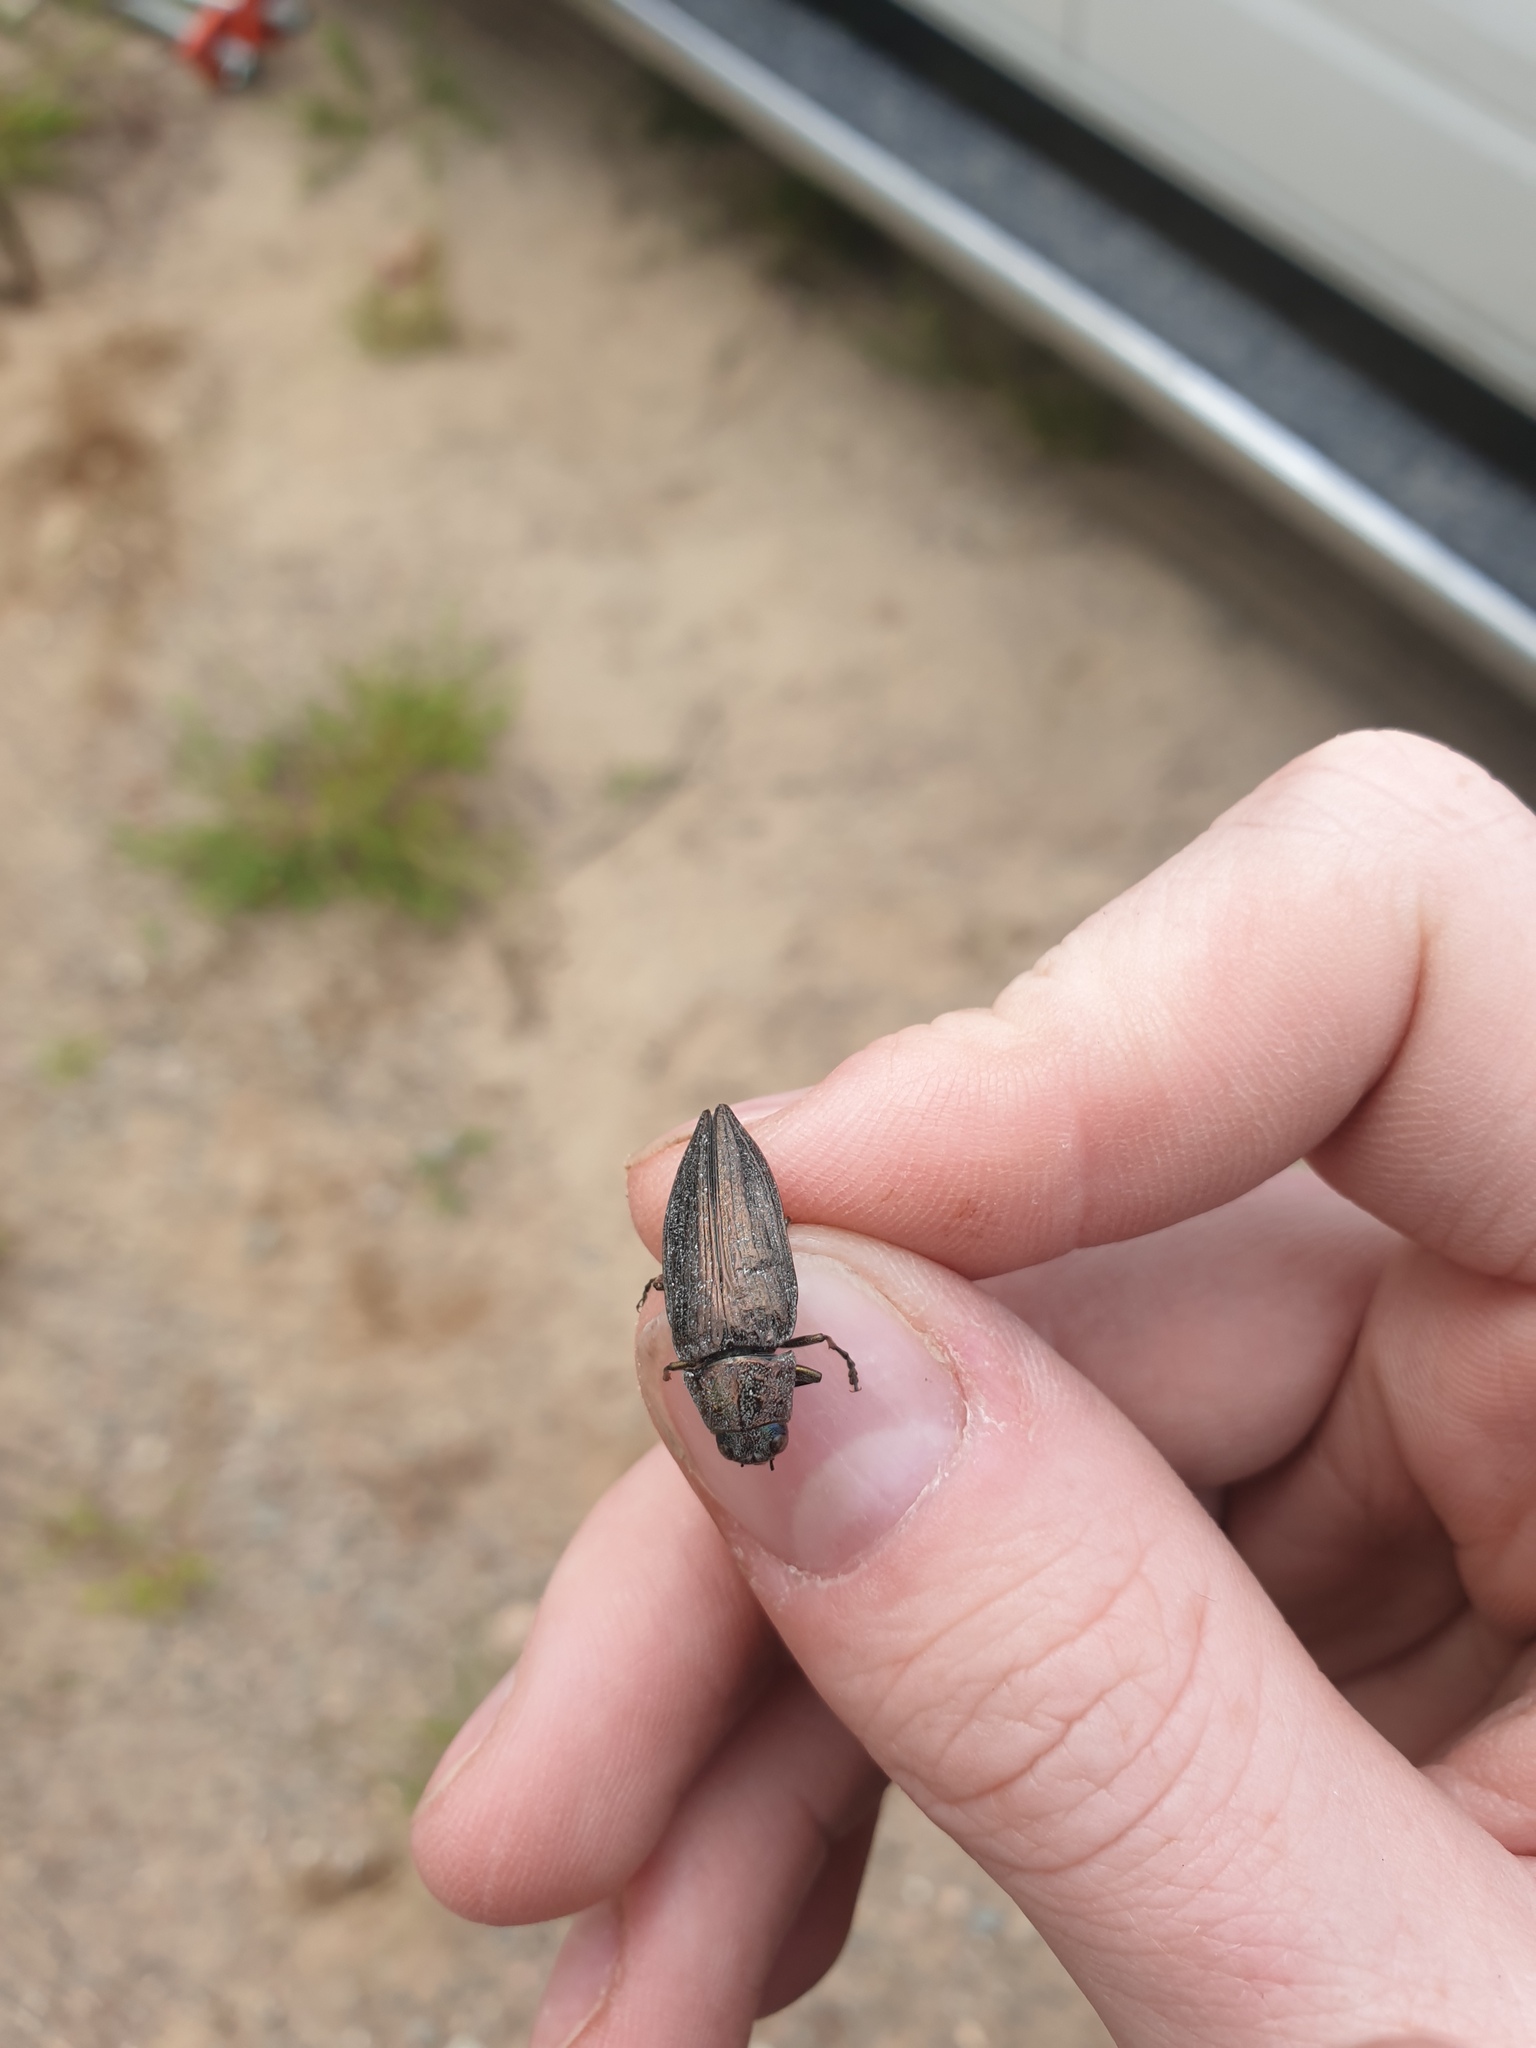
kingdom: Animalia
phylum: Arthropoda
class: Insecta
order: Coleoptera
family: Buprestidae
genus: Buprestis
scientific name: Buprestis maculativentris
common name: Spotted-belly buprestid beetle
